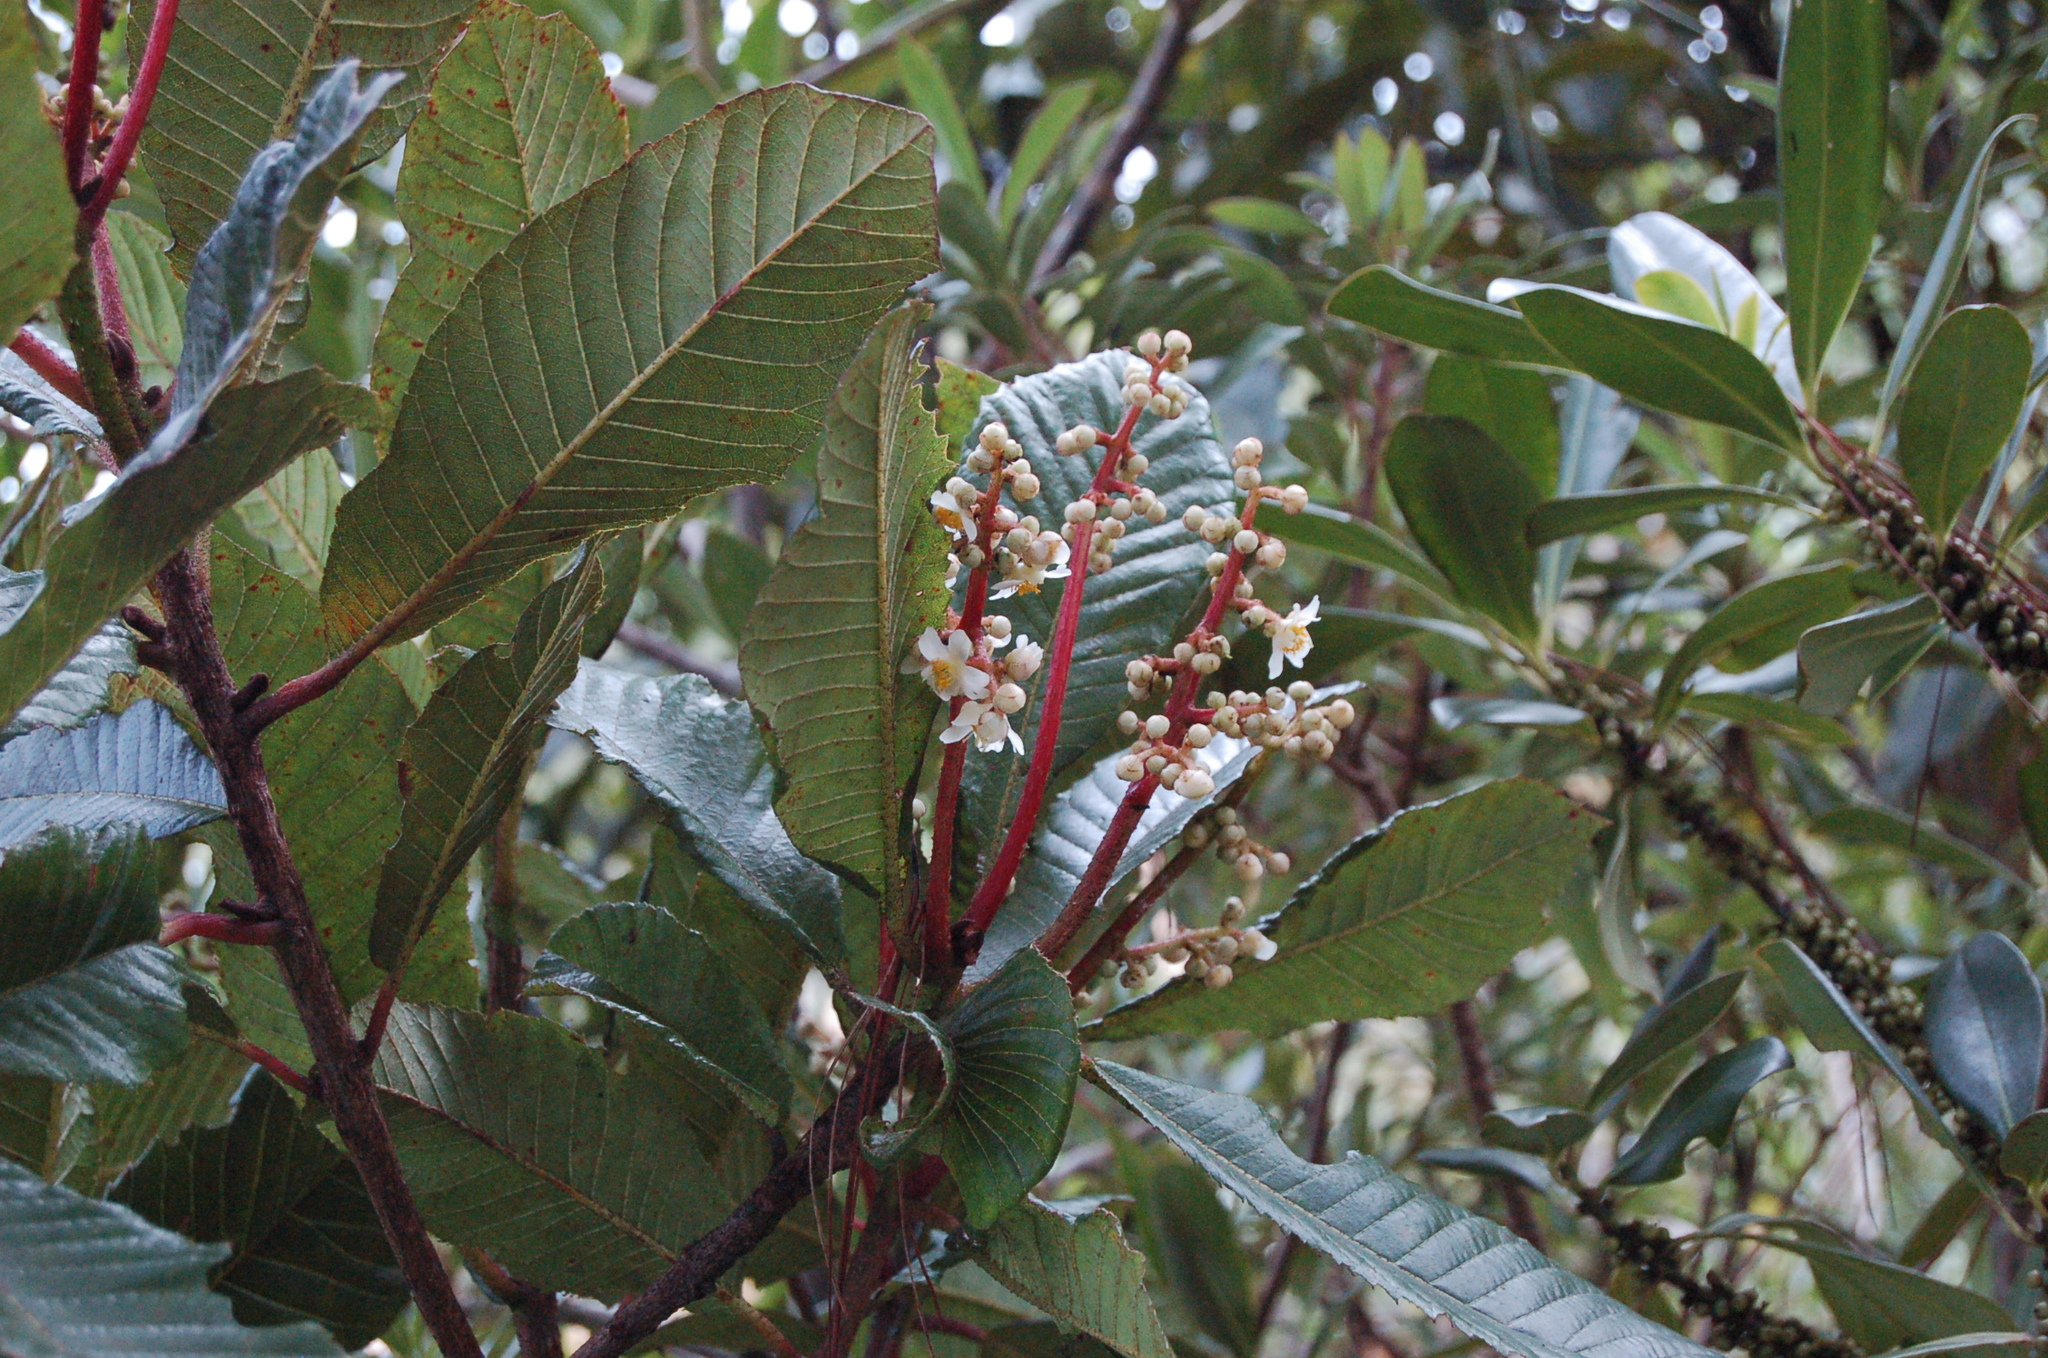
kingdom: Plantae
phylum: Tracheophyta
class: Magnoliopsida
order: Ericales
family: Actinidiaceae
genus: Saurauia
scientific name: Saurauia madrensis
